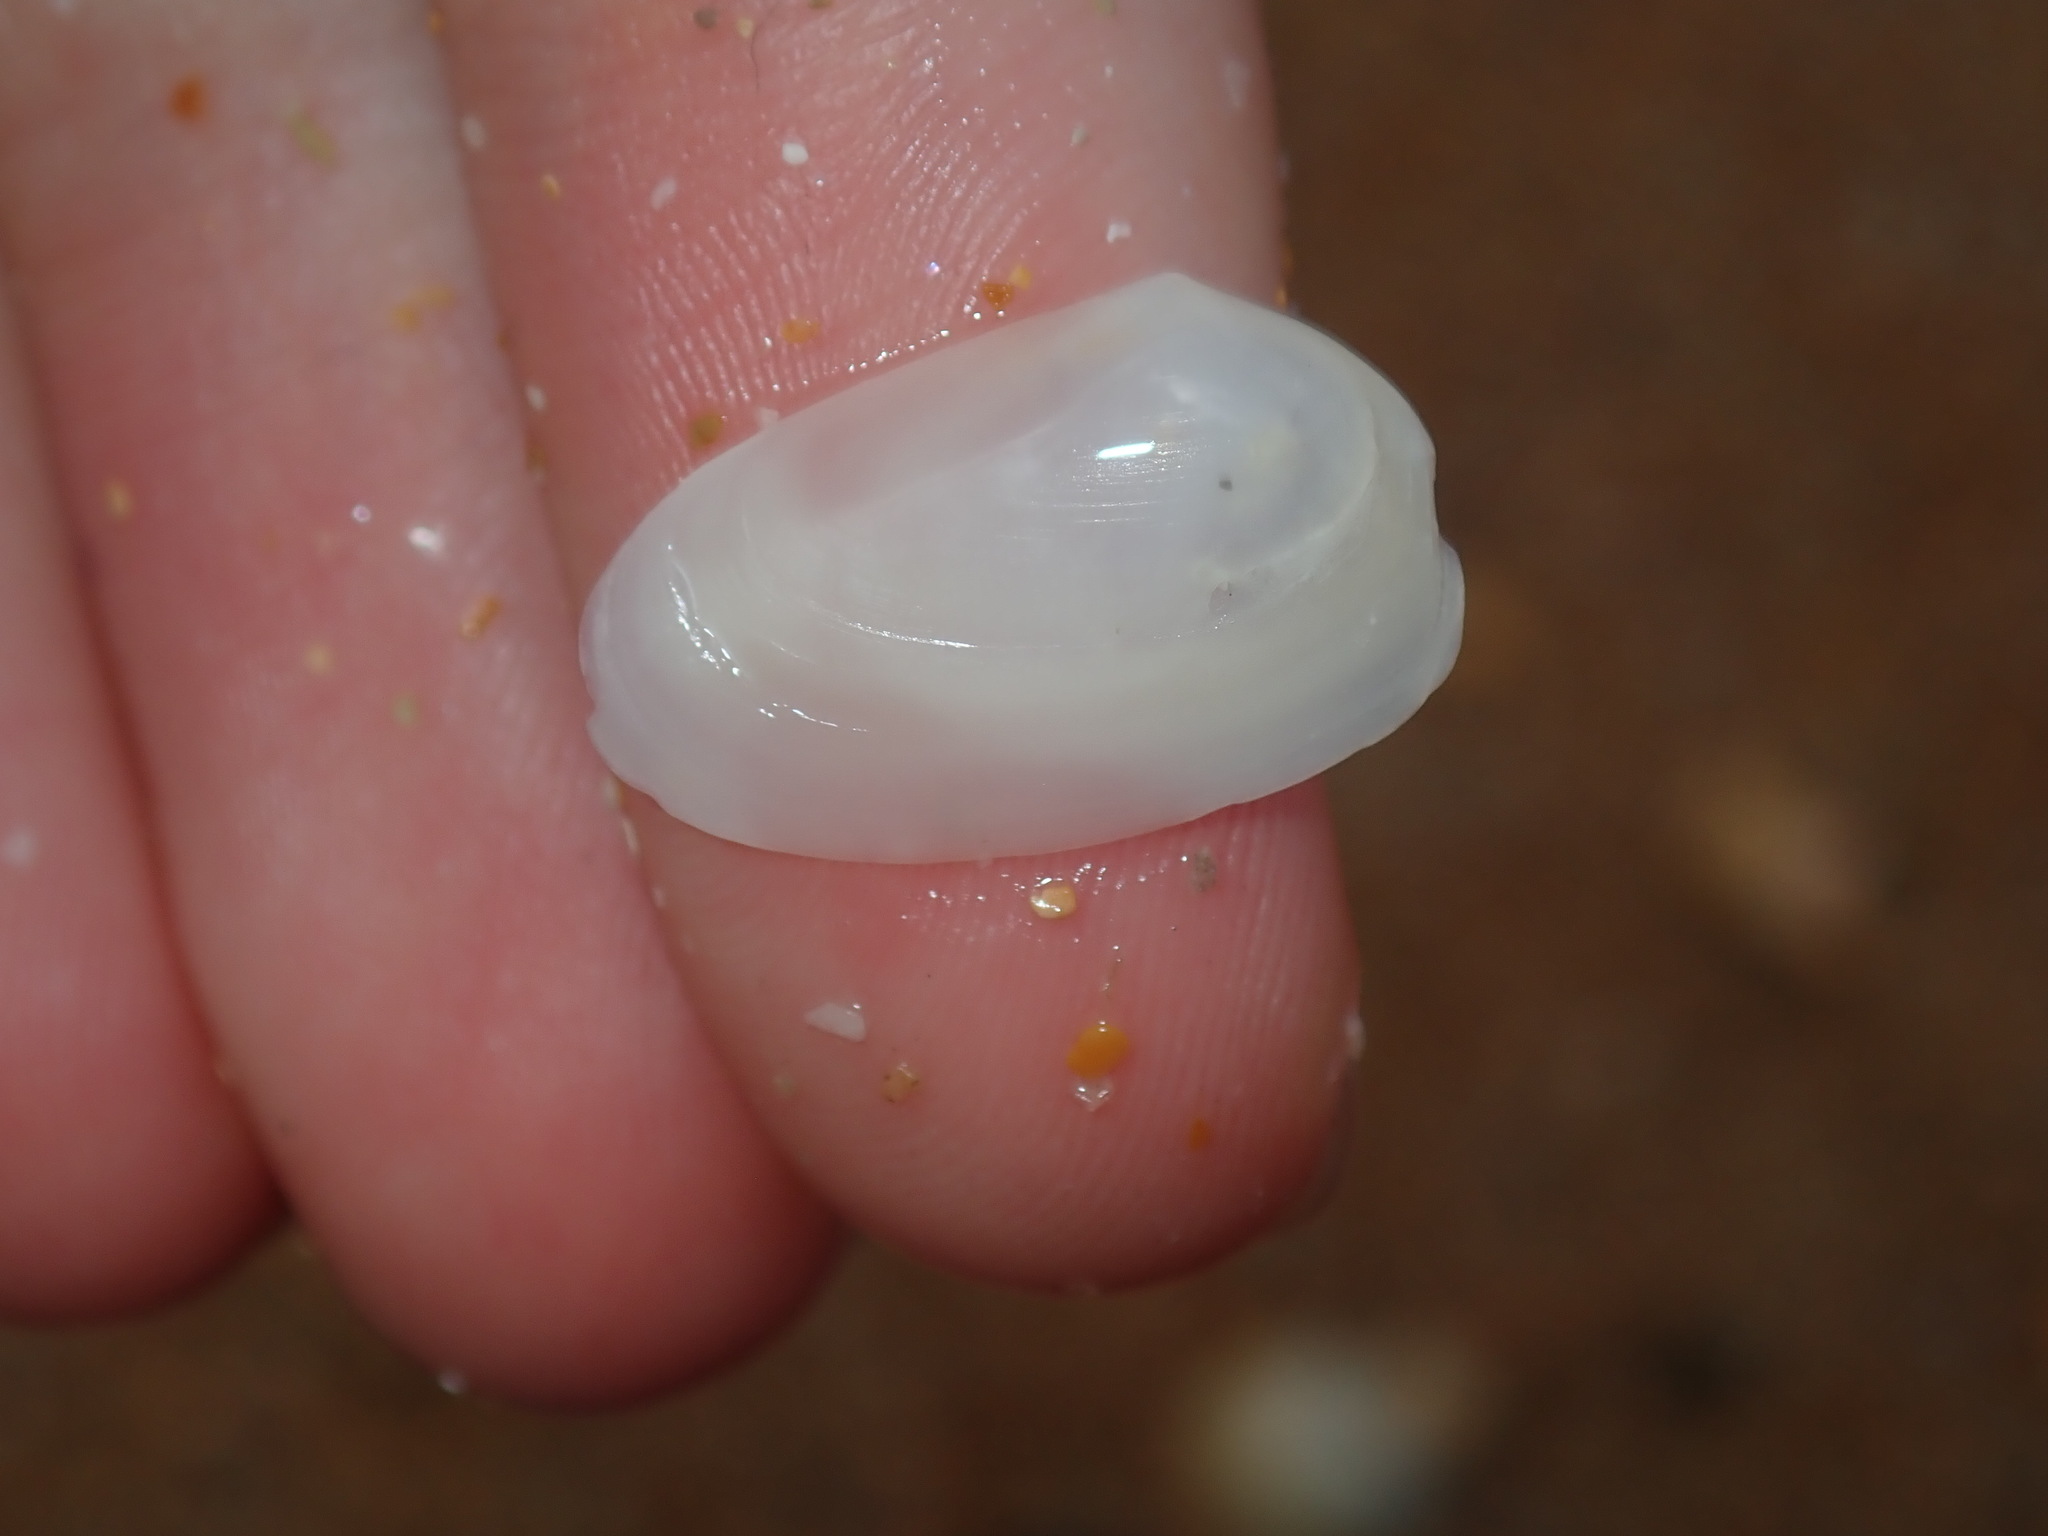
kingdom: Animalia
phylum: Mollusca
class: Bivalvia
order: Venerida
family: Mesodesmatidae
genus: Paphies
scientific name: Paphies angusta
